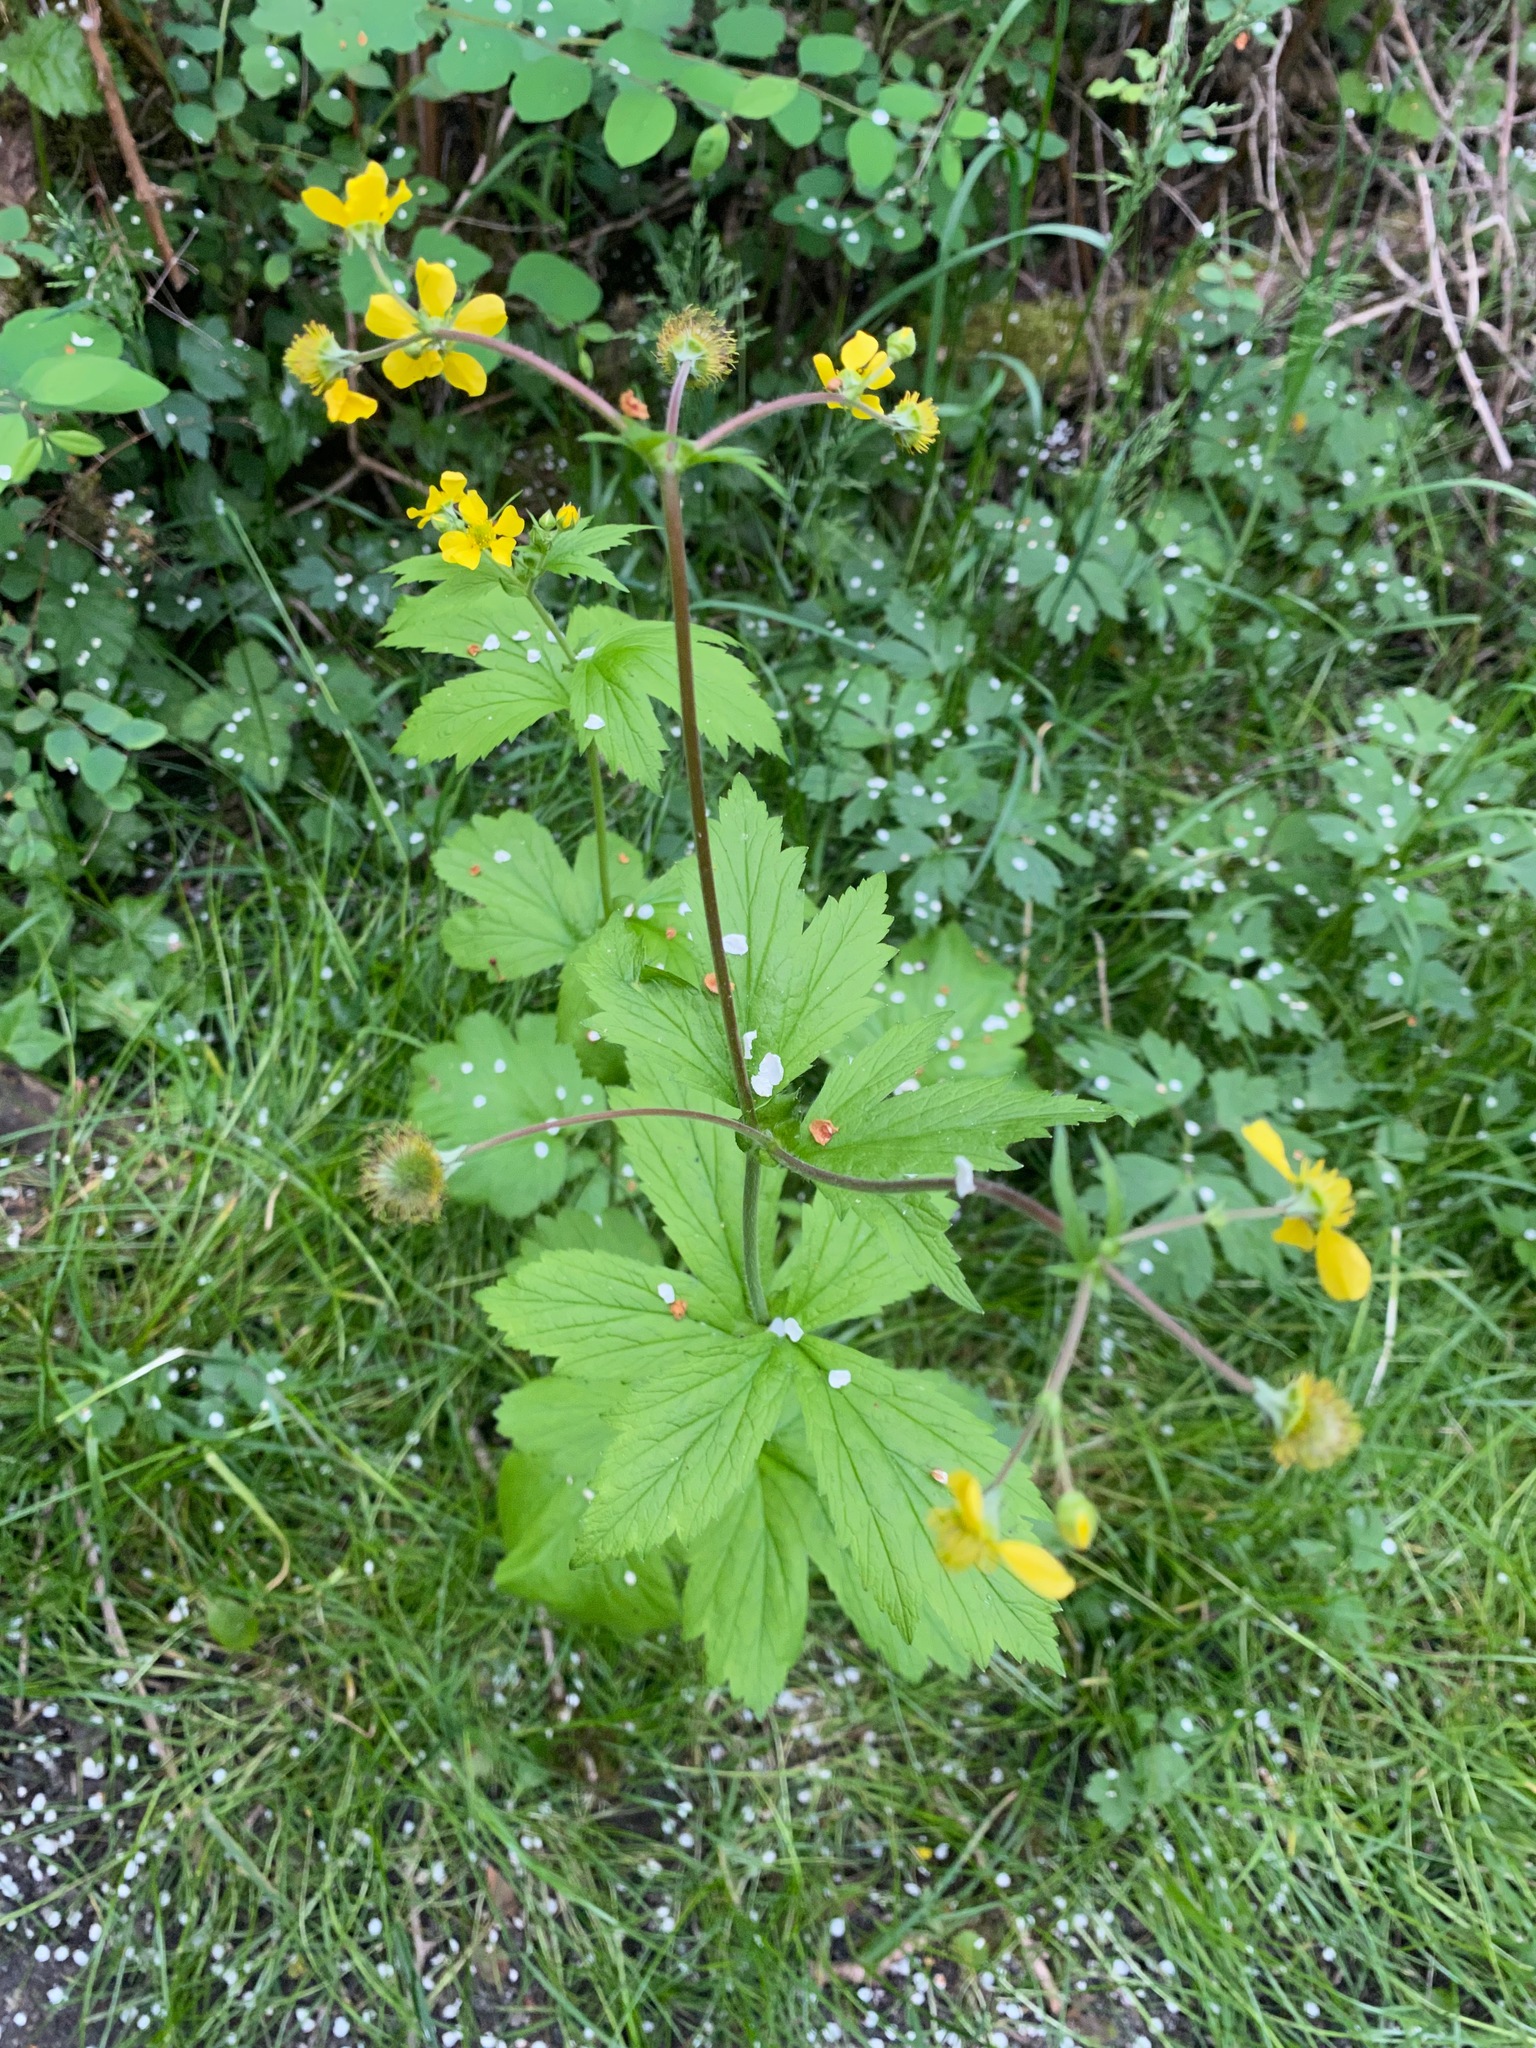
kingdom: Plantae
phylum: Tracheophyta
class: Magnoliopsida
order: Rosales
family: Rosaceae
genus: Geum
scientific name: Geum macrophyllum
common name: Large-leaved avens
